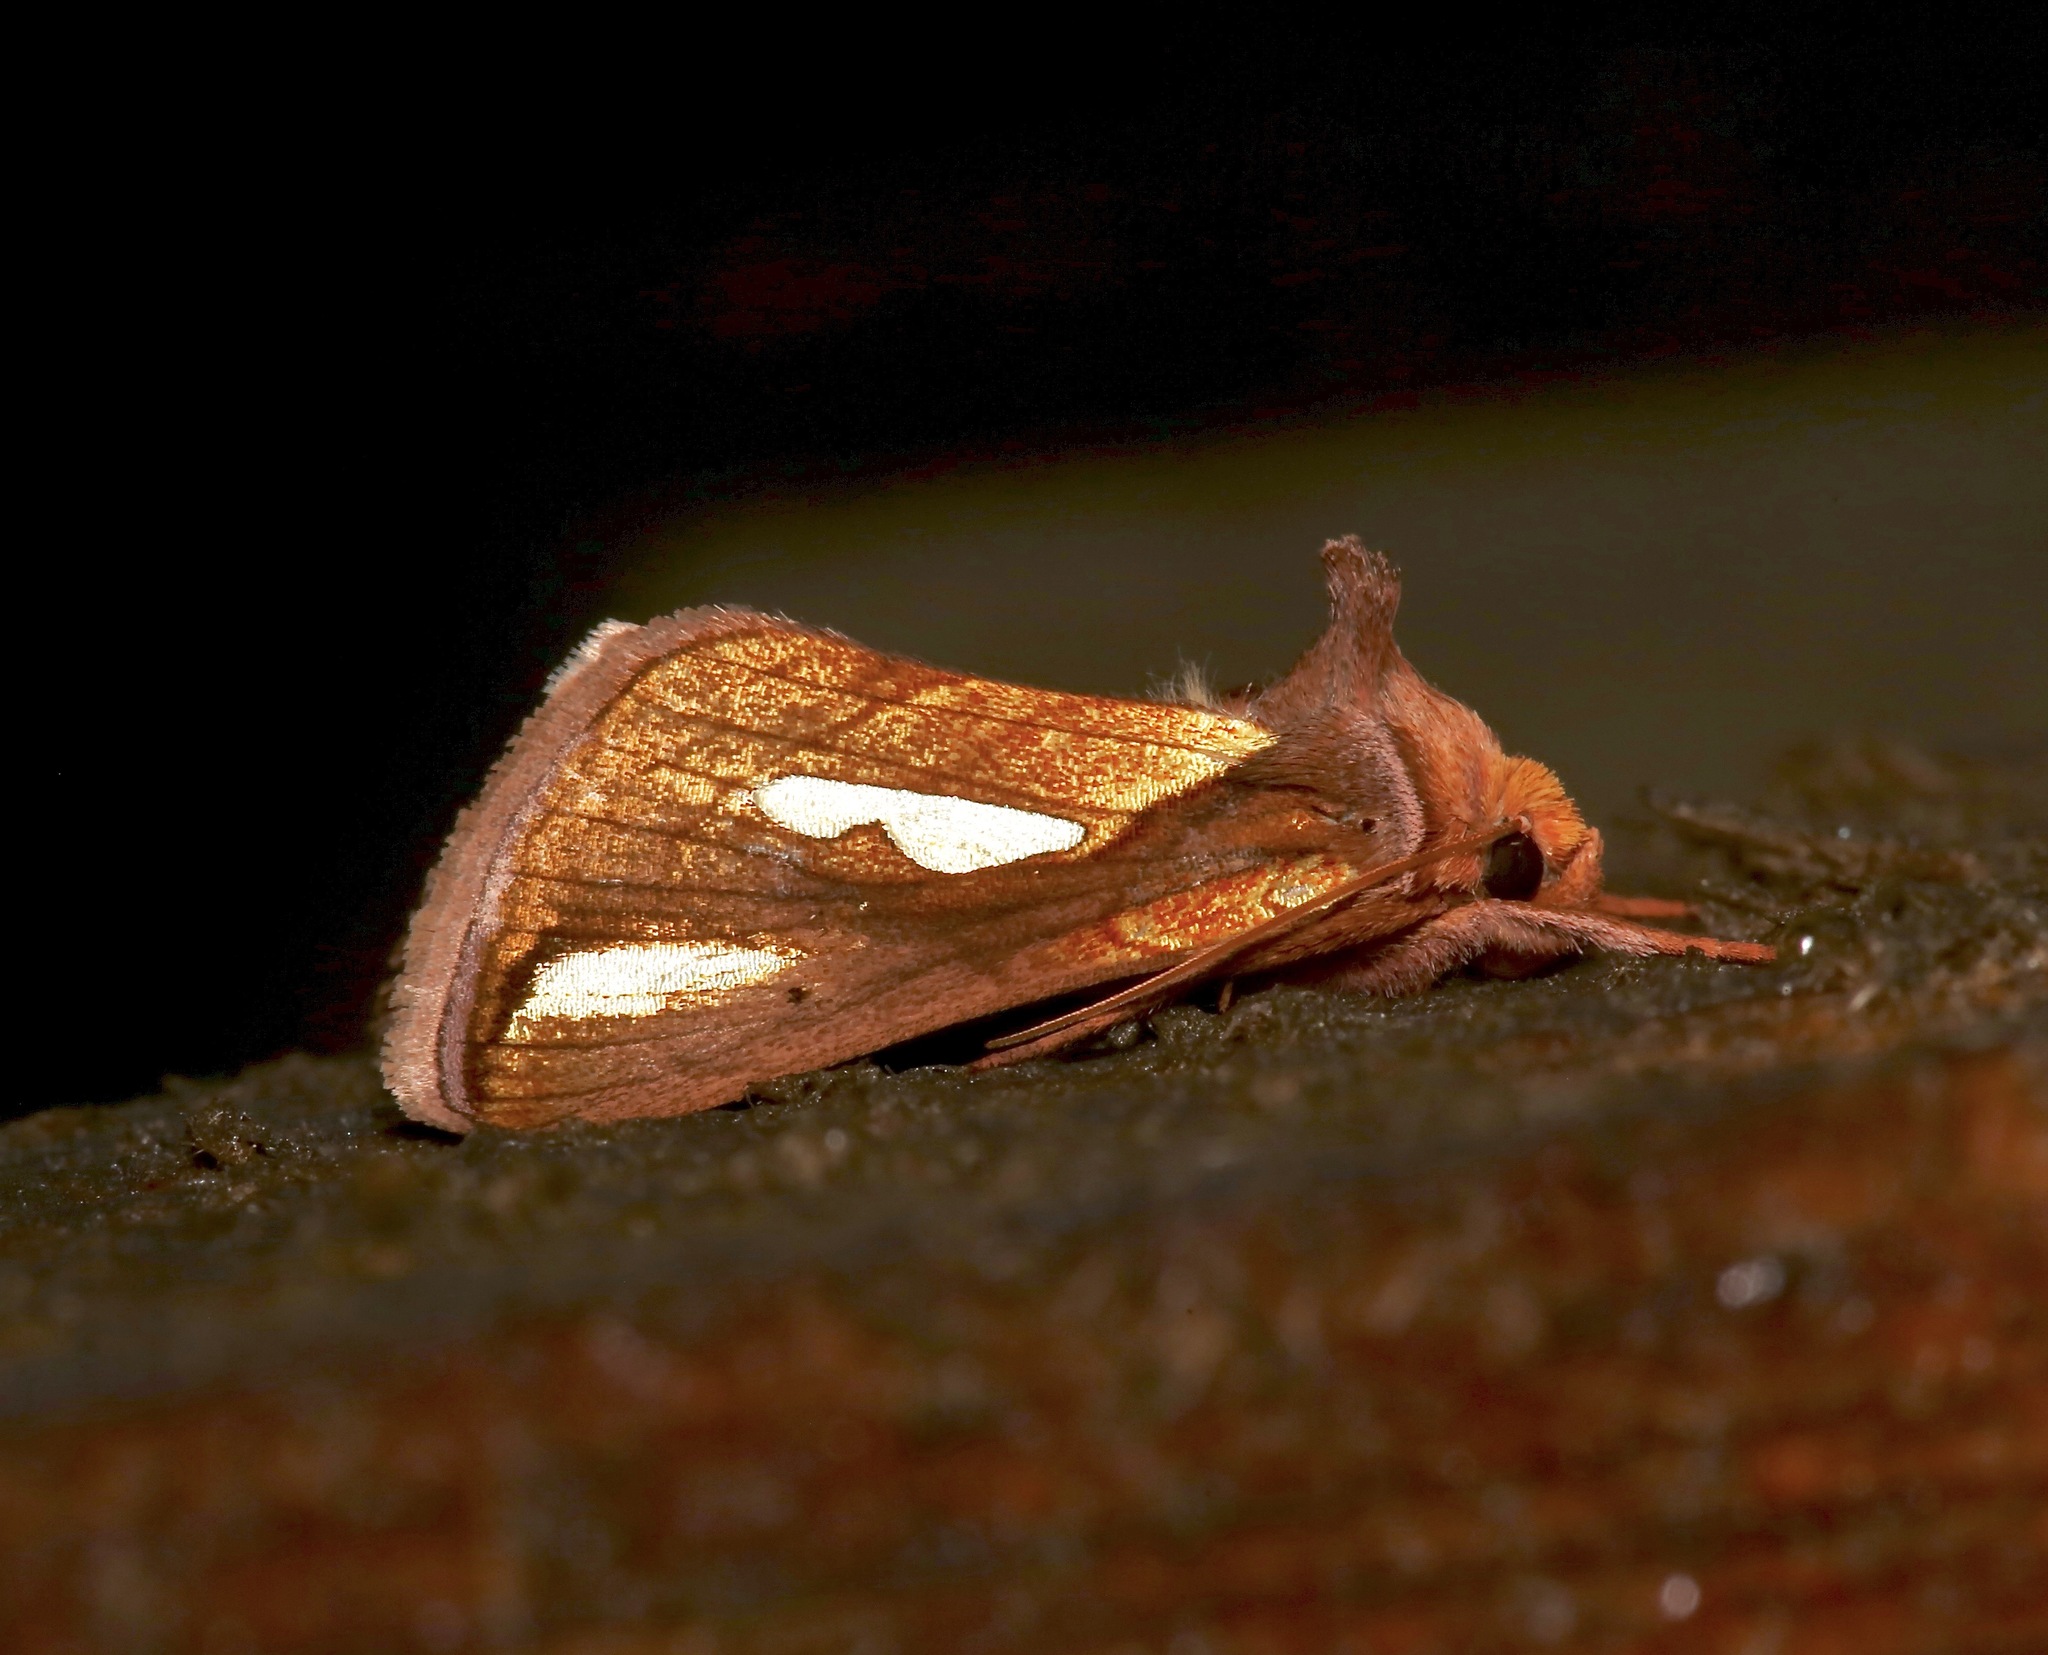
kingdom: Animalia
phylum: Arthropoda
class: Insecta
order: Lepidoptera
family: Noctuidae
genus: Plusia
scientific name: Plusia contexta
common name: Connected looper moth
